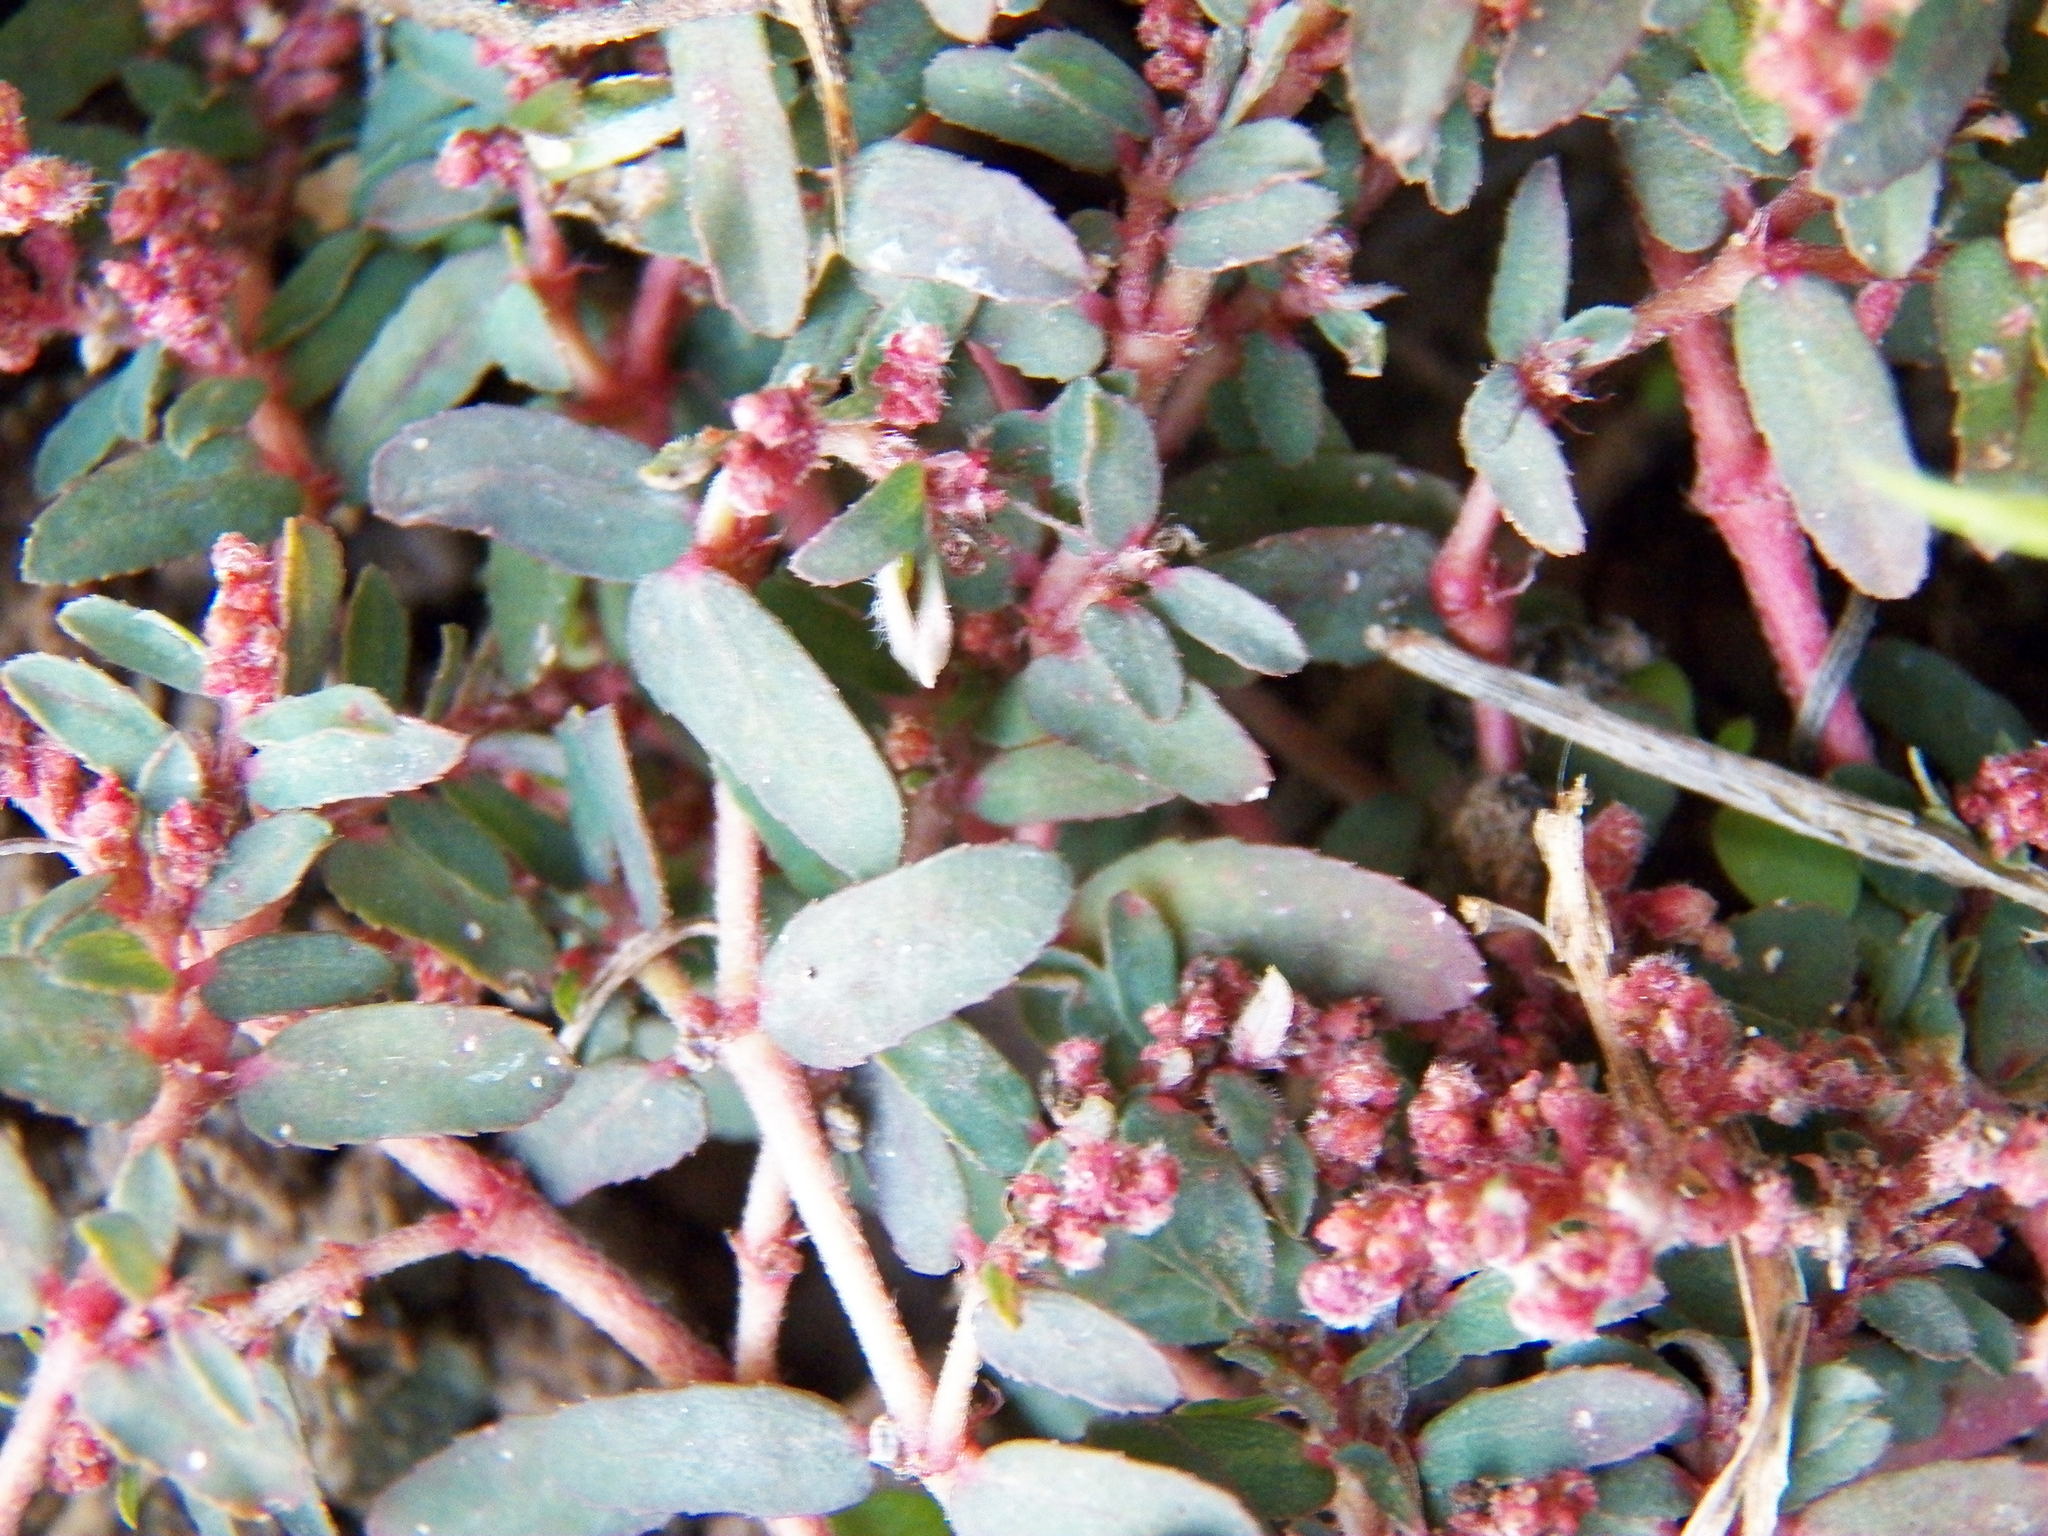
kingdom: Plantae
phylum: Tracheophyta
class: Magnoliopsida
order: Malpighiales
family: Euphorbiaceae
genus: Euphorbia
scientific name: Euphorbia maculata
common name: Spotted spurge
